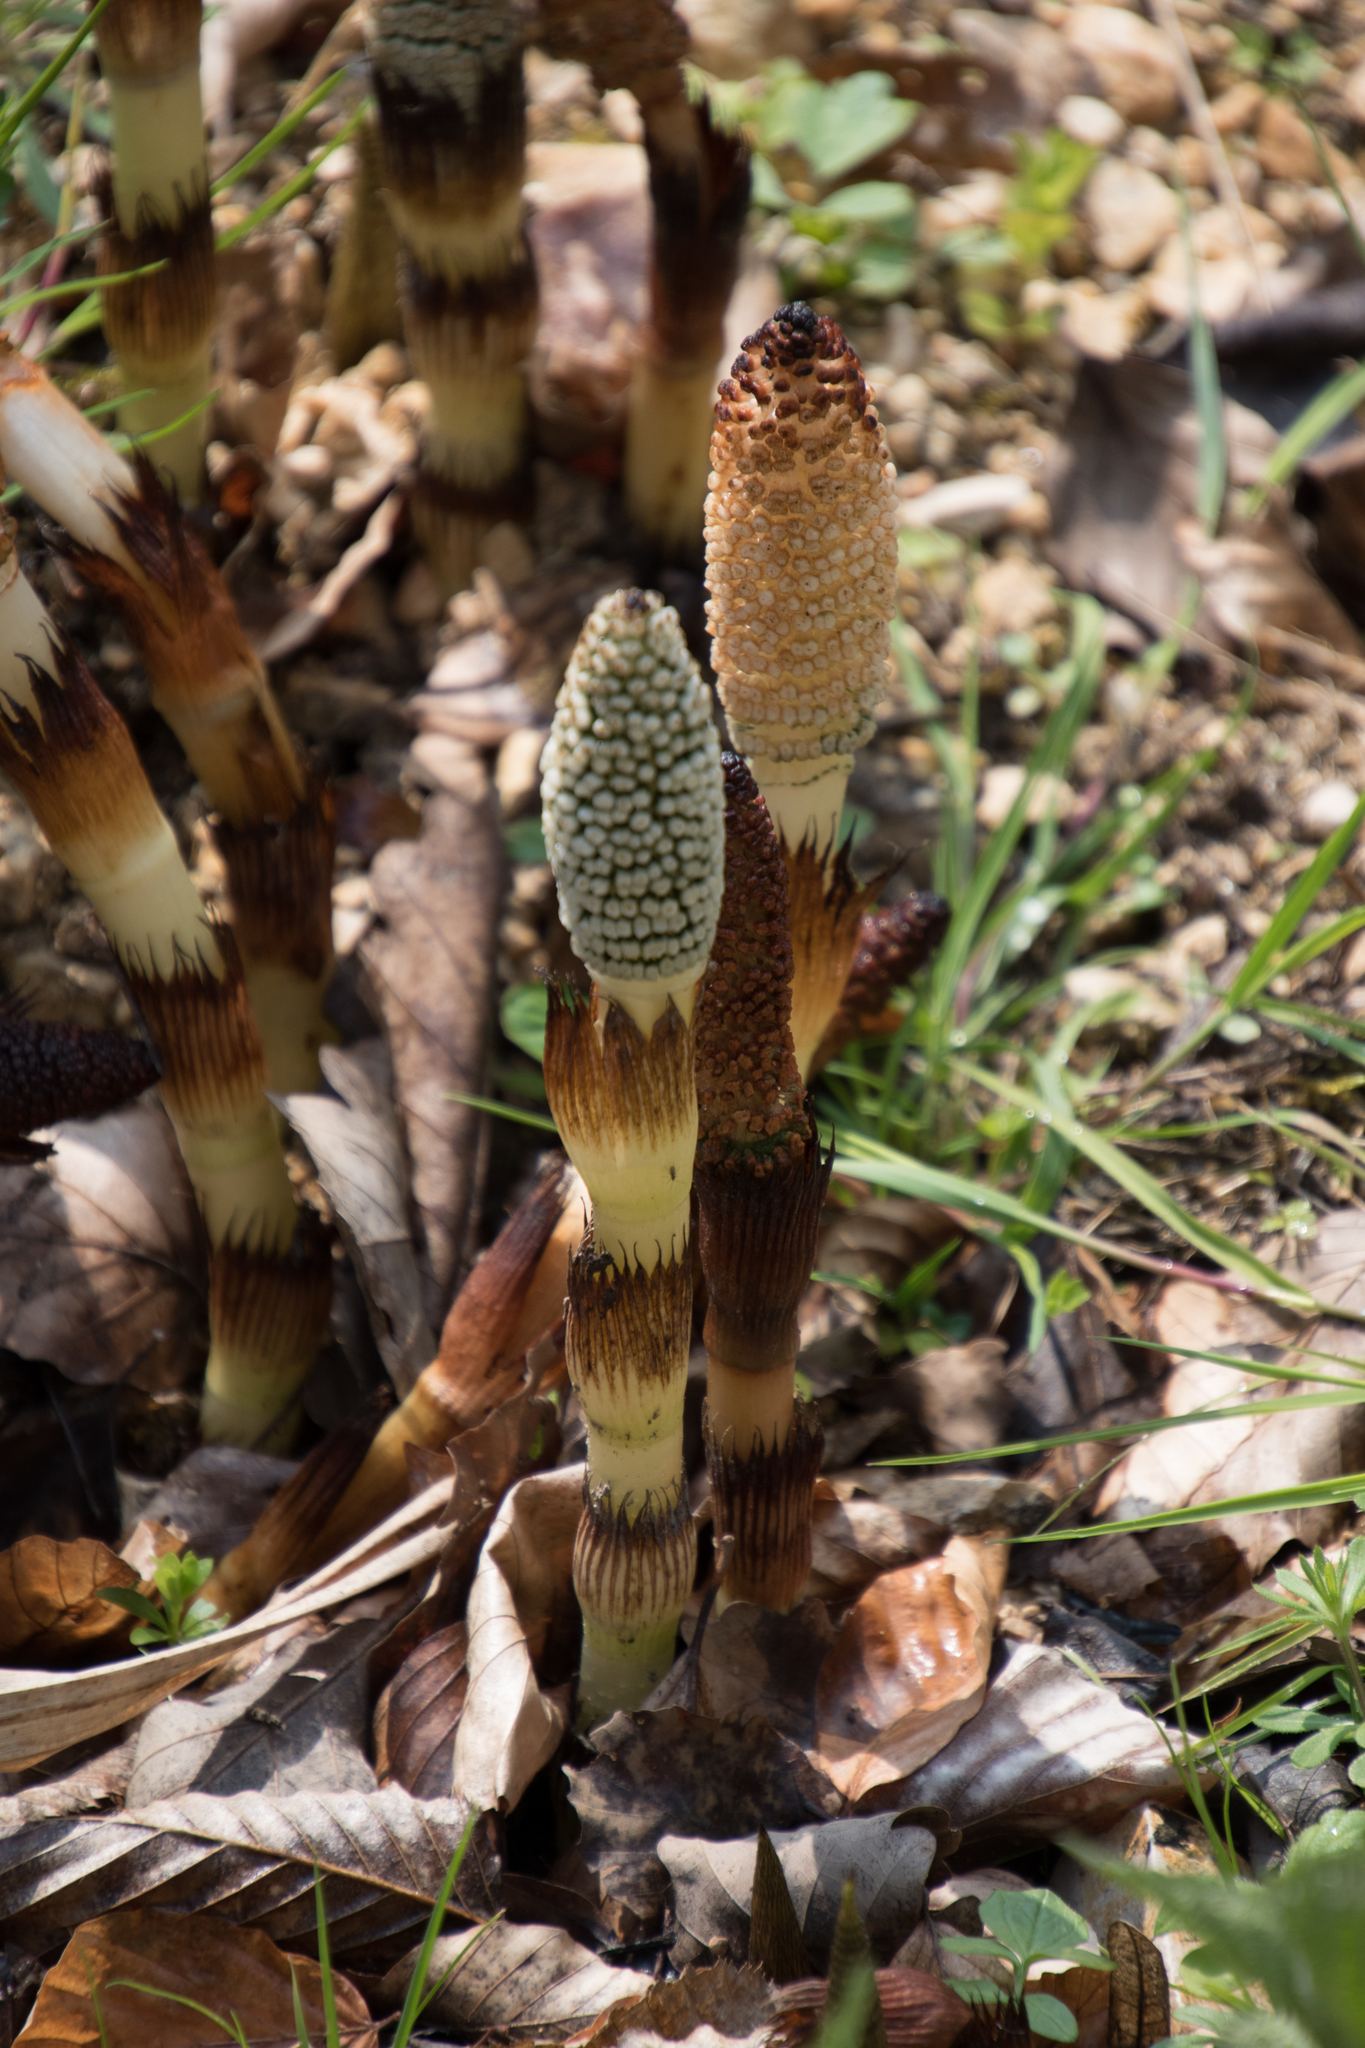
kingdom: Plantae
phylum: Tracheophyta
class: Polypodiopsida
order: Equisetales
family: Equisetaceae
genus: Equisetum
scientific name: Equisetum telmateia
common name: Great horsetail
